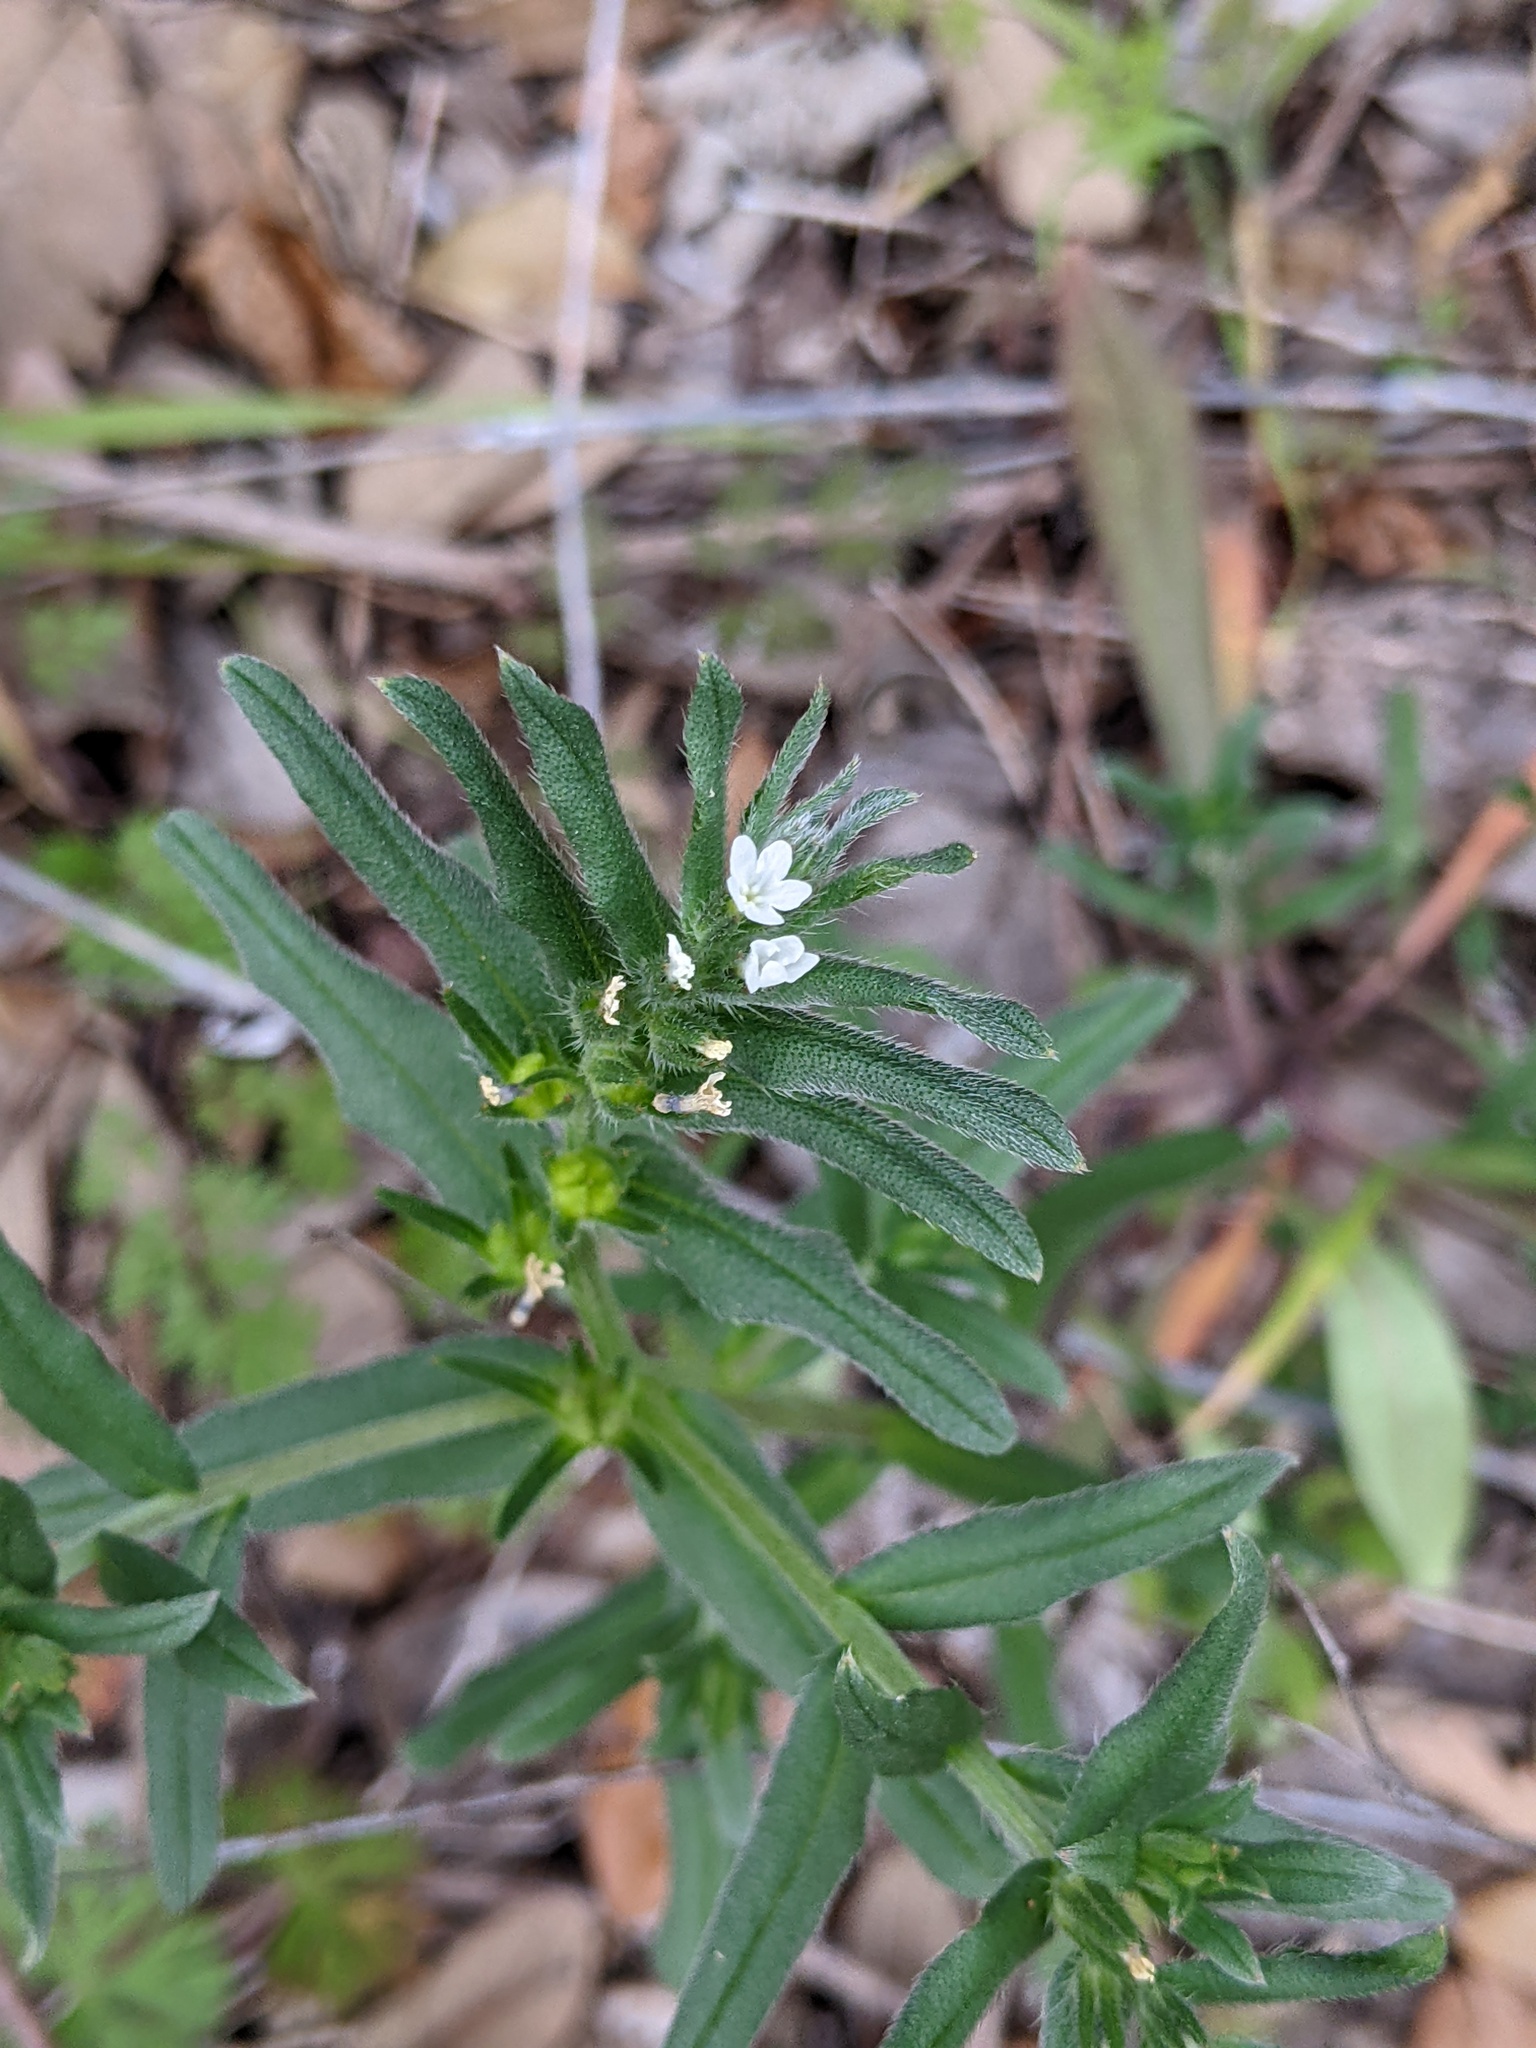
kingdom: Plantae
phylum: Tracheophyta
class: Magnoliopsida
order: Boraginales
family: Boraginaceae
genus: Buglossoides
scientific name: Buglossoides arvensis
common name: Corn gromwell
